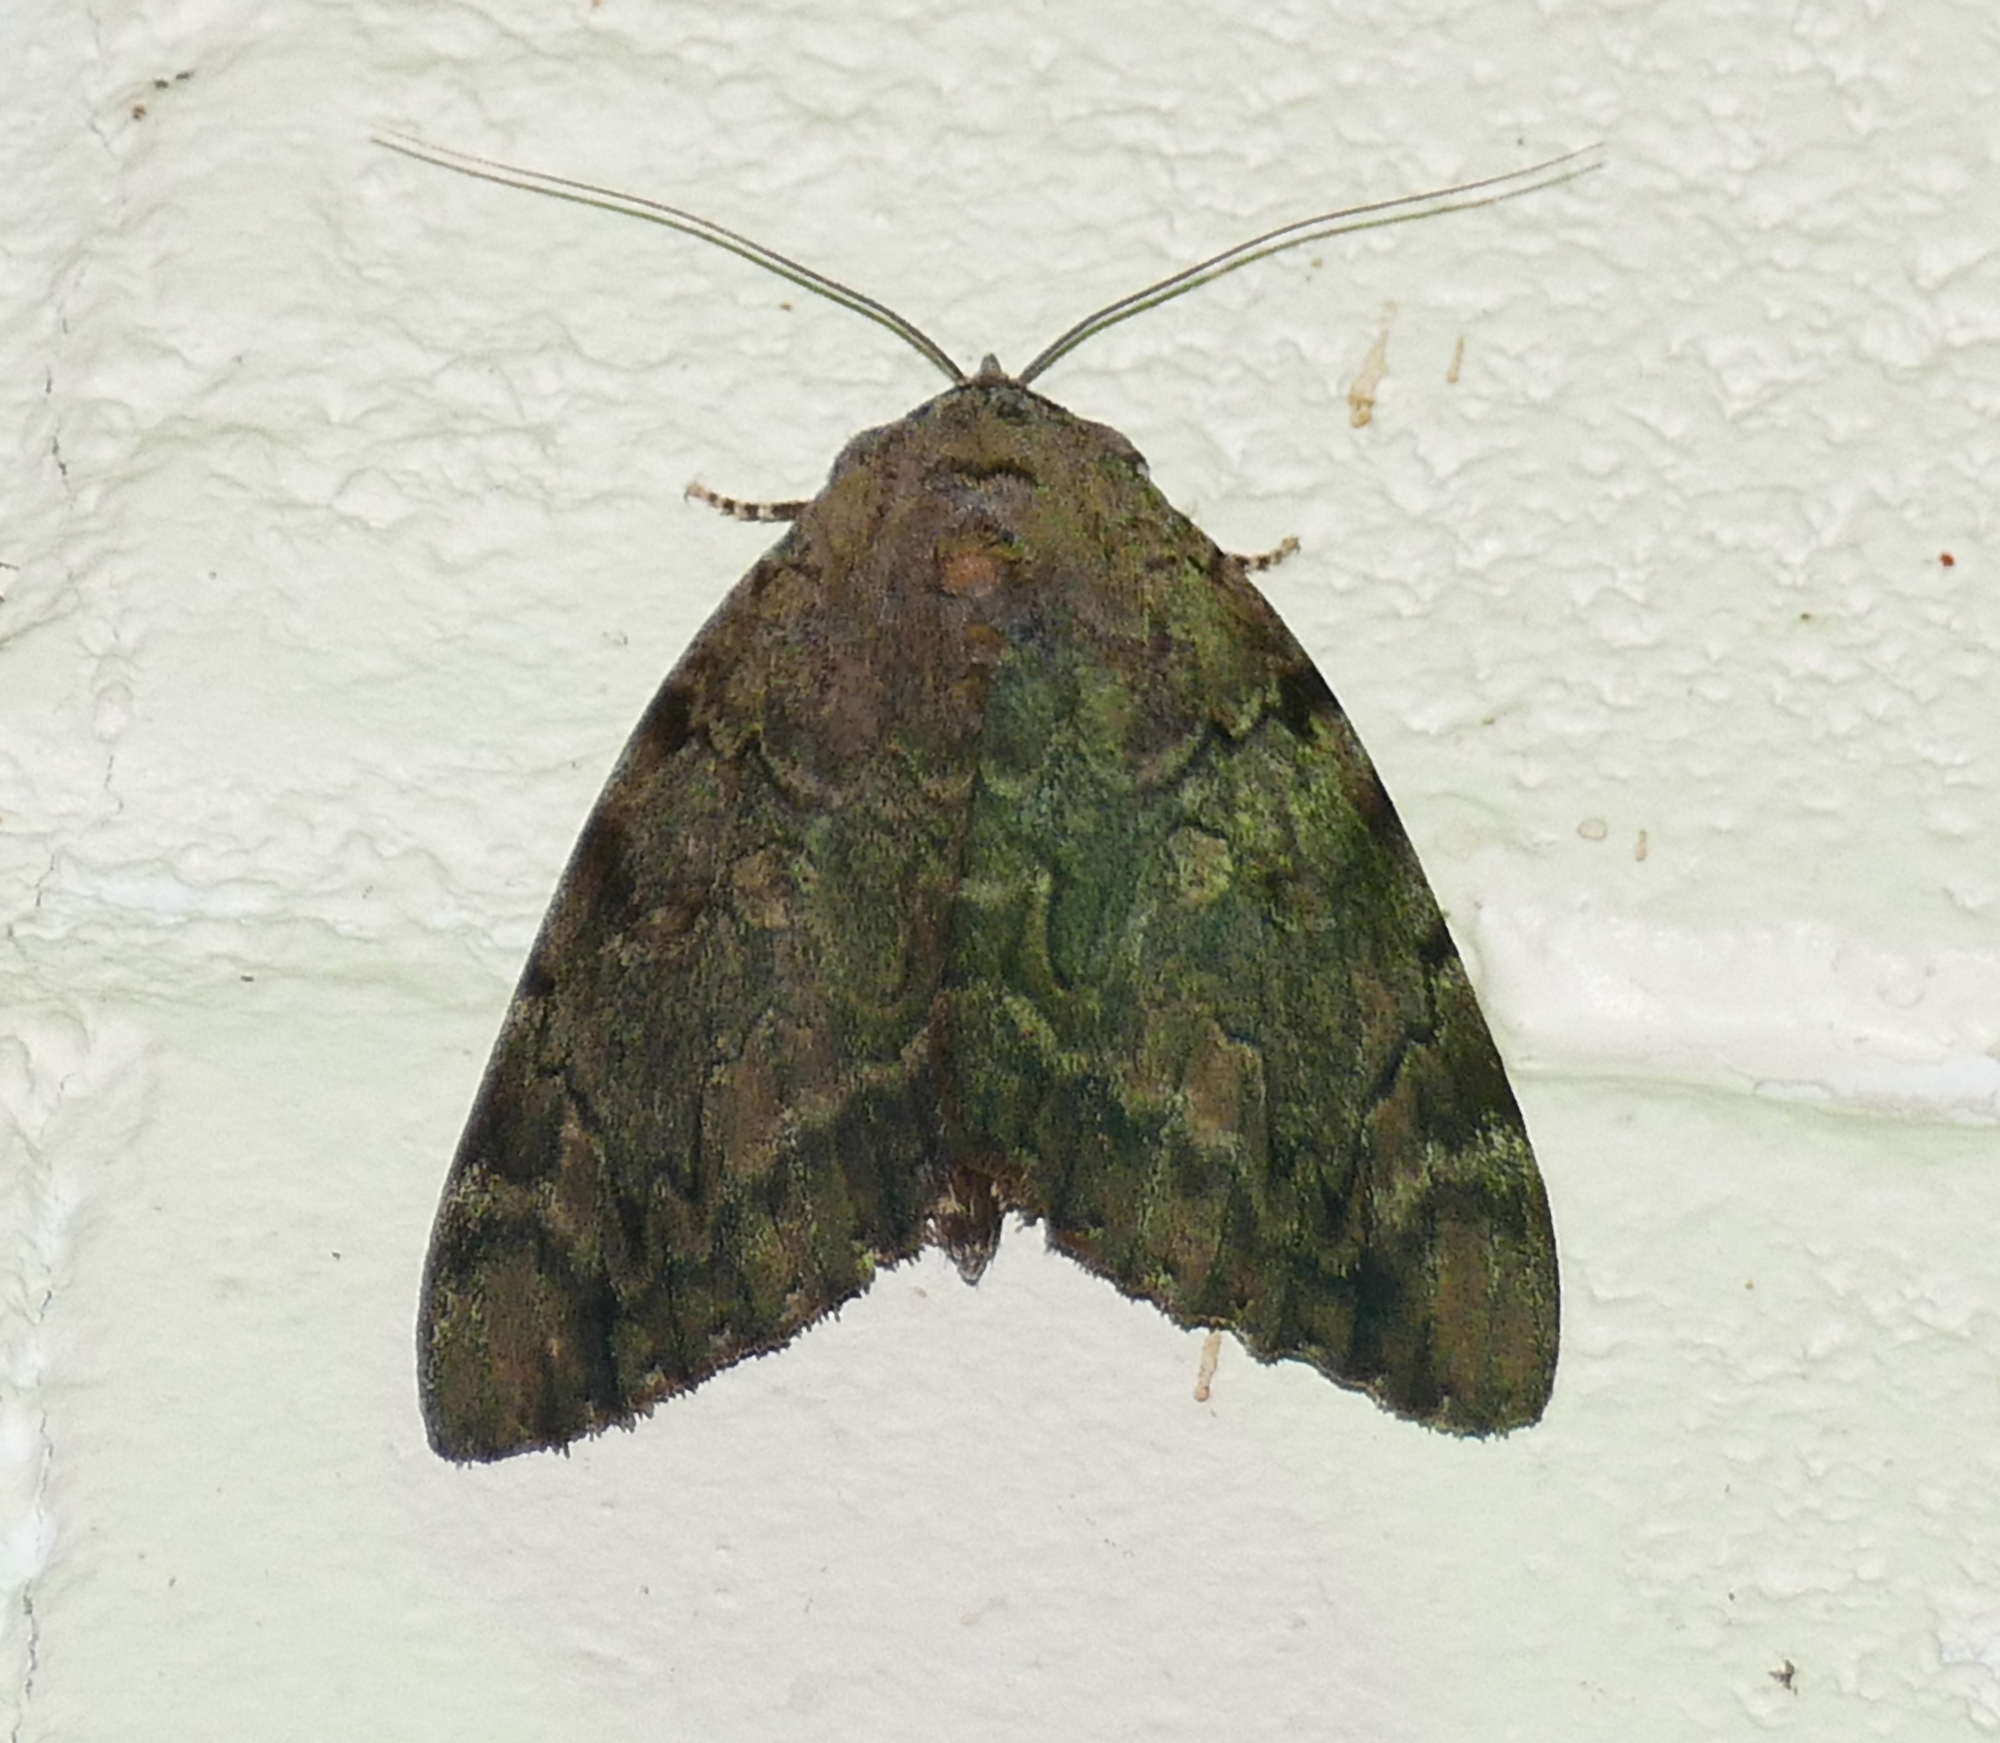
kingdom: Animalia
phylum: Arthropoda
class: Insecta
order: Lepidoptera
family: Erebidae
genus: Catocala
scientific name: Catocala agrippina
